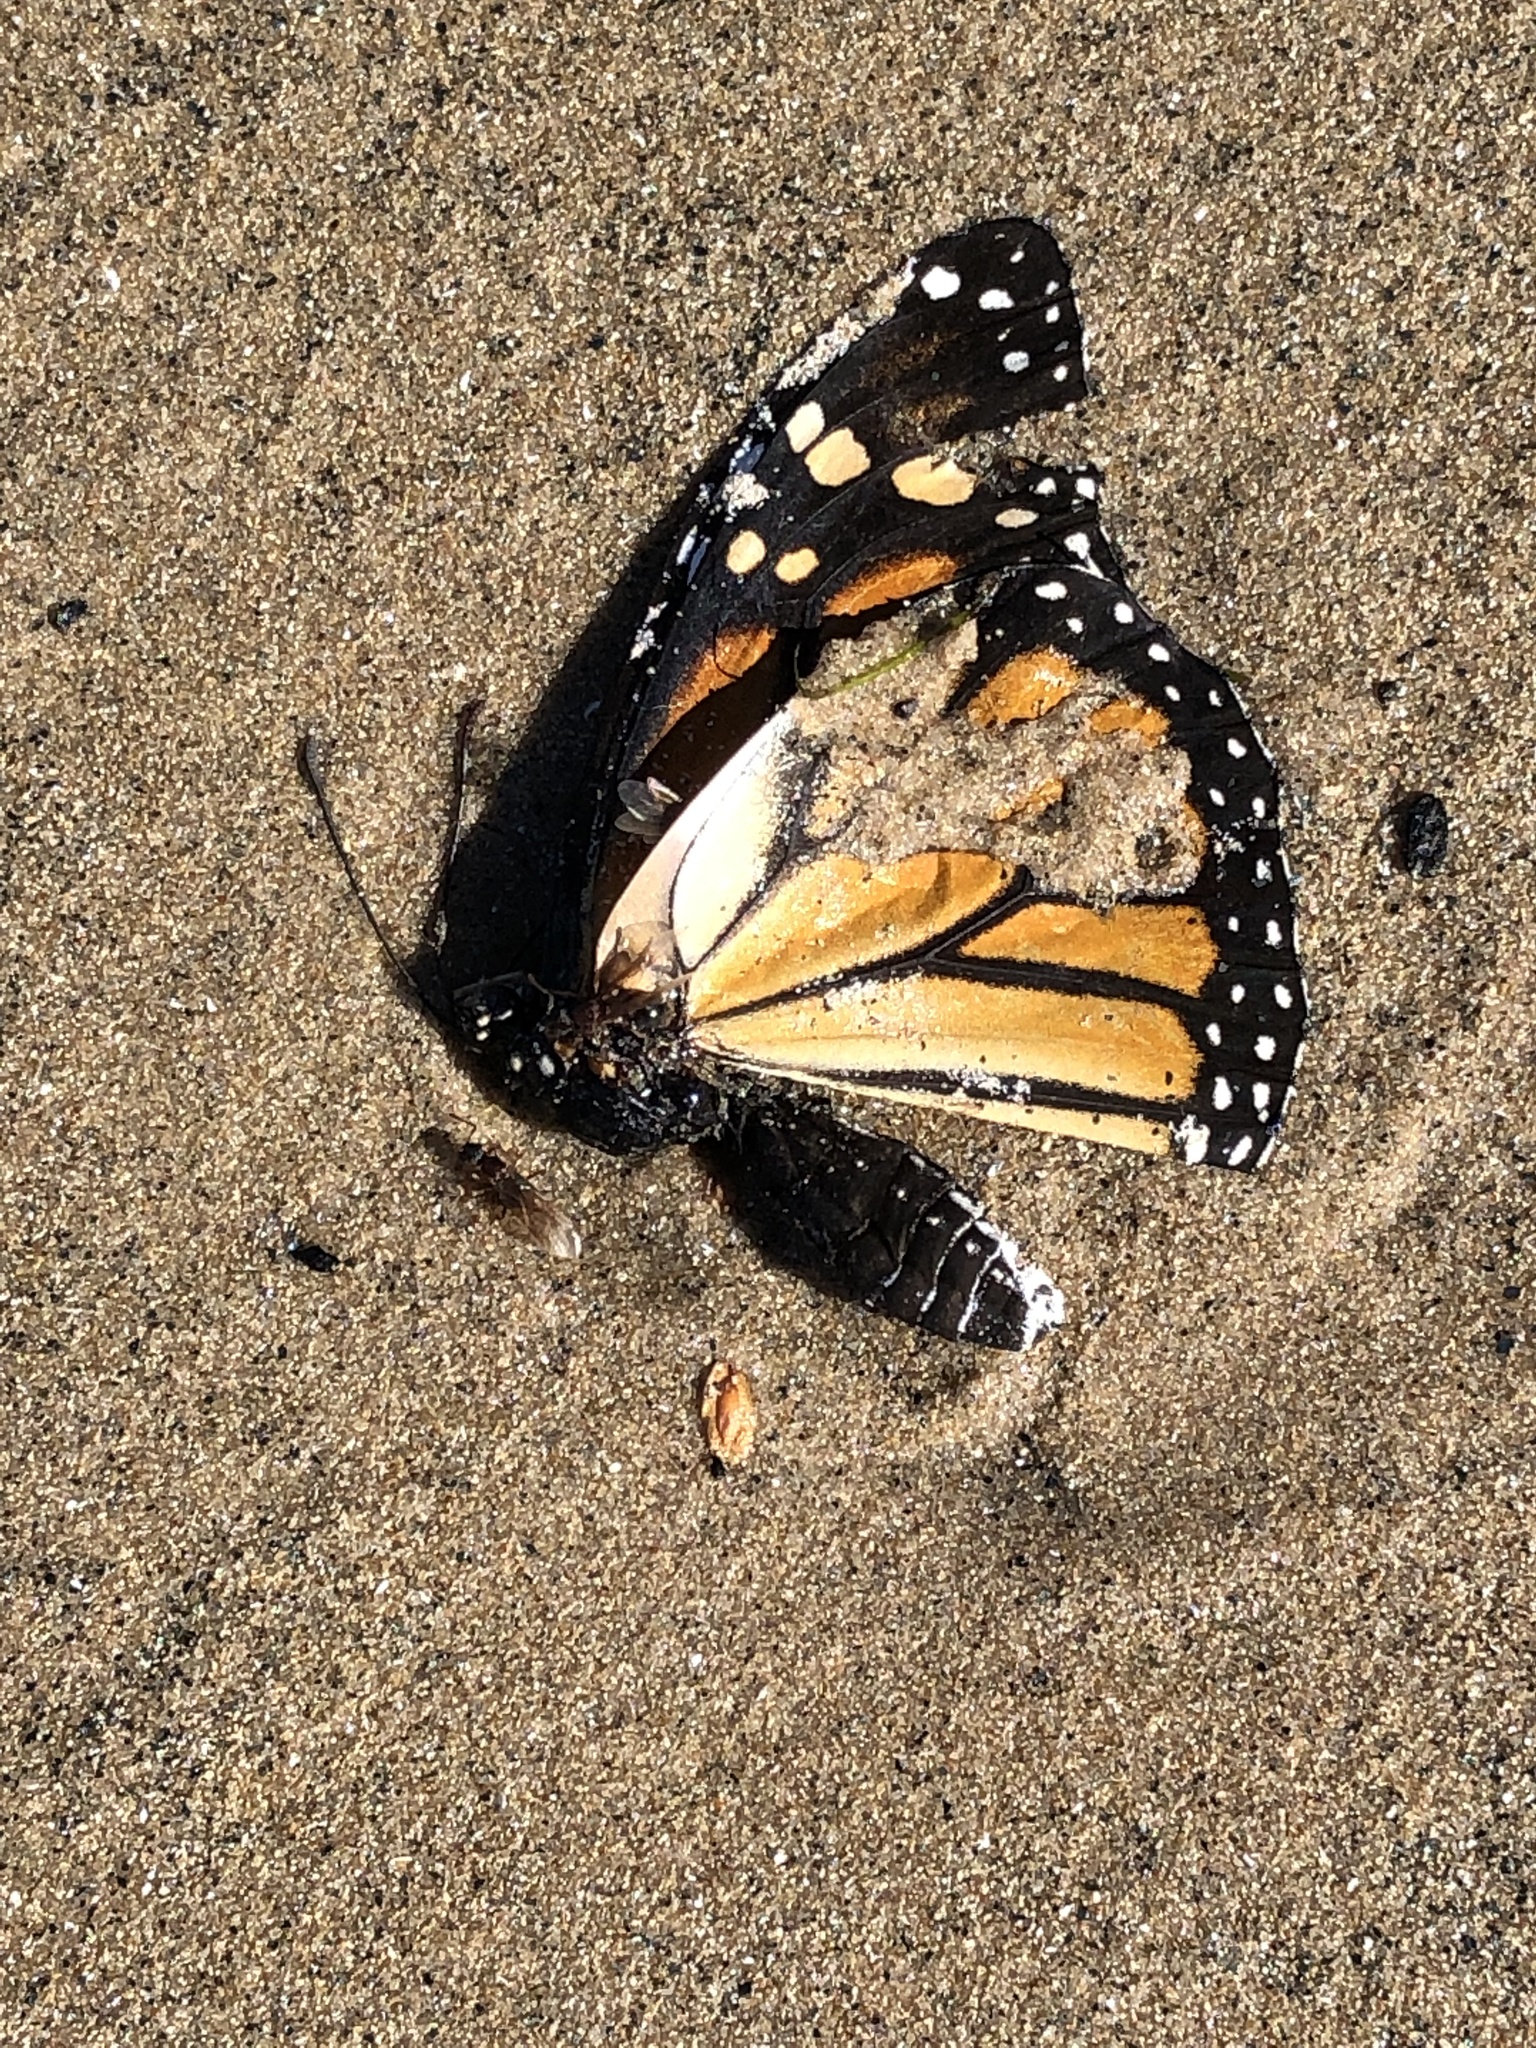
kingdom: Animalia
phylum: Arthropoda
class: Insecta
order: Lepidoptera
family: Nymphalidae
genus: Danaus
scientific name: Danaus plexippus
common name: Monarch
